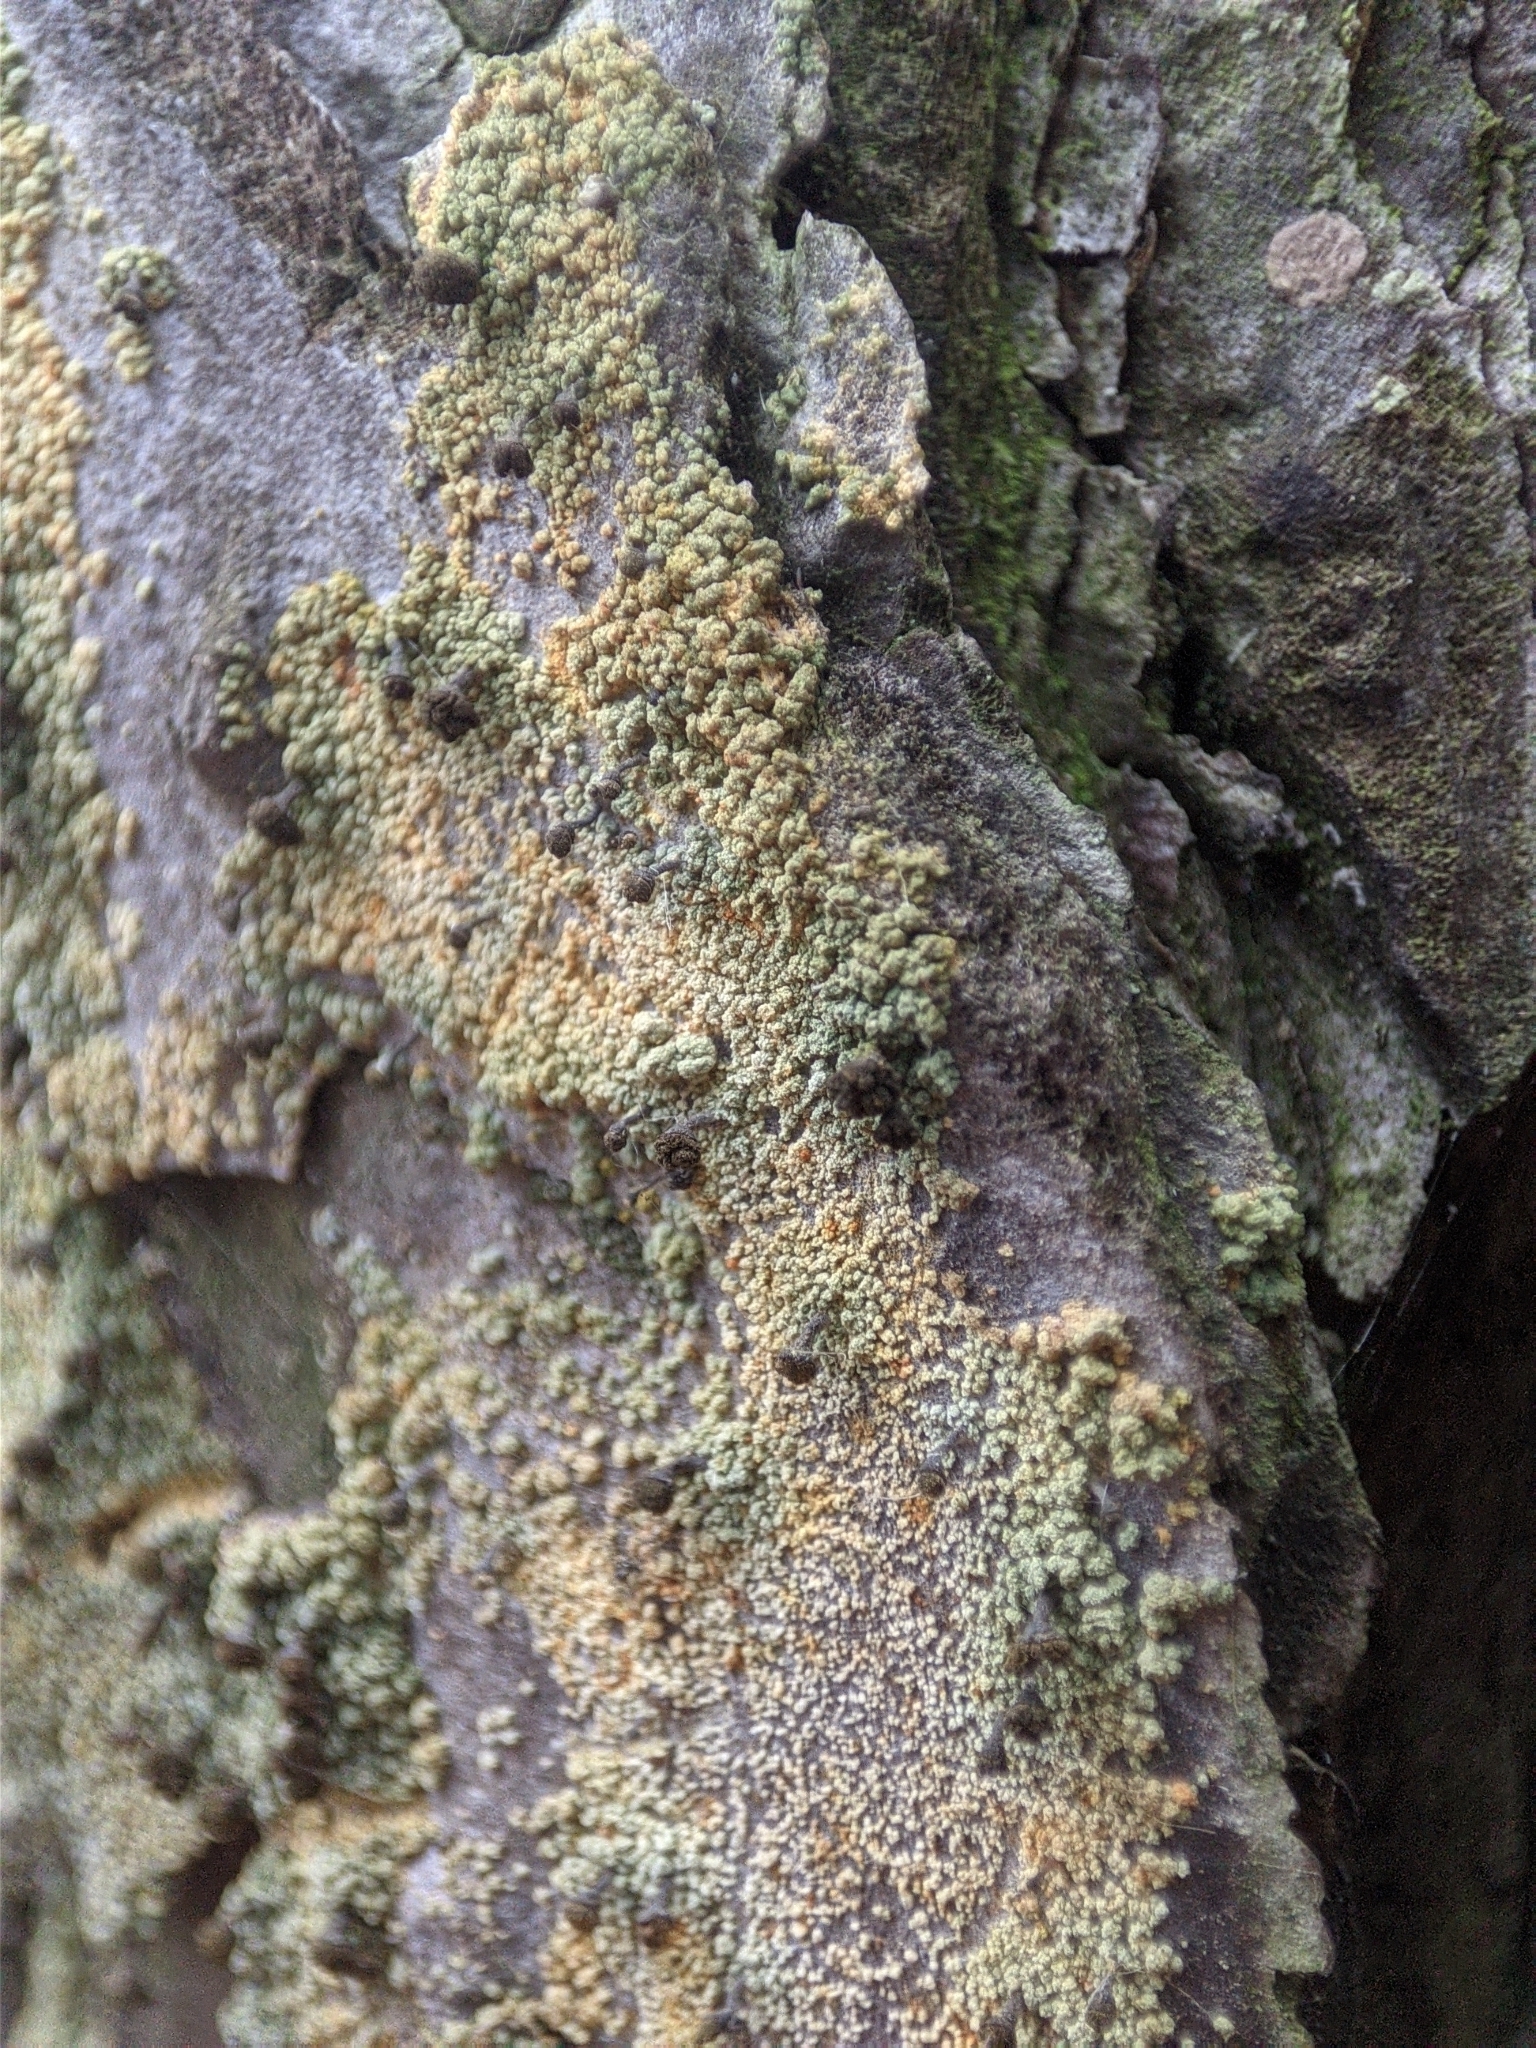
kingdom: Fungi
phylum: Ascomycota
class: Coniocybomycetes
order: Coniocybales
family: Coniocybaceae
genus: Chaenotheca
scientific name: Chaenotheca ferruginea
